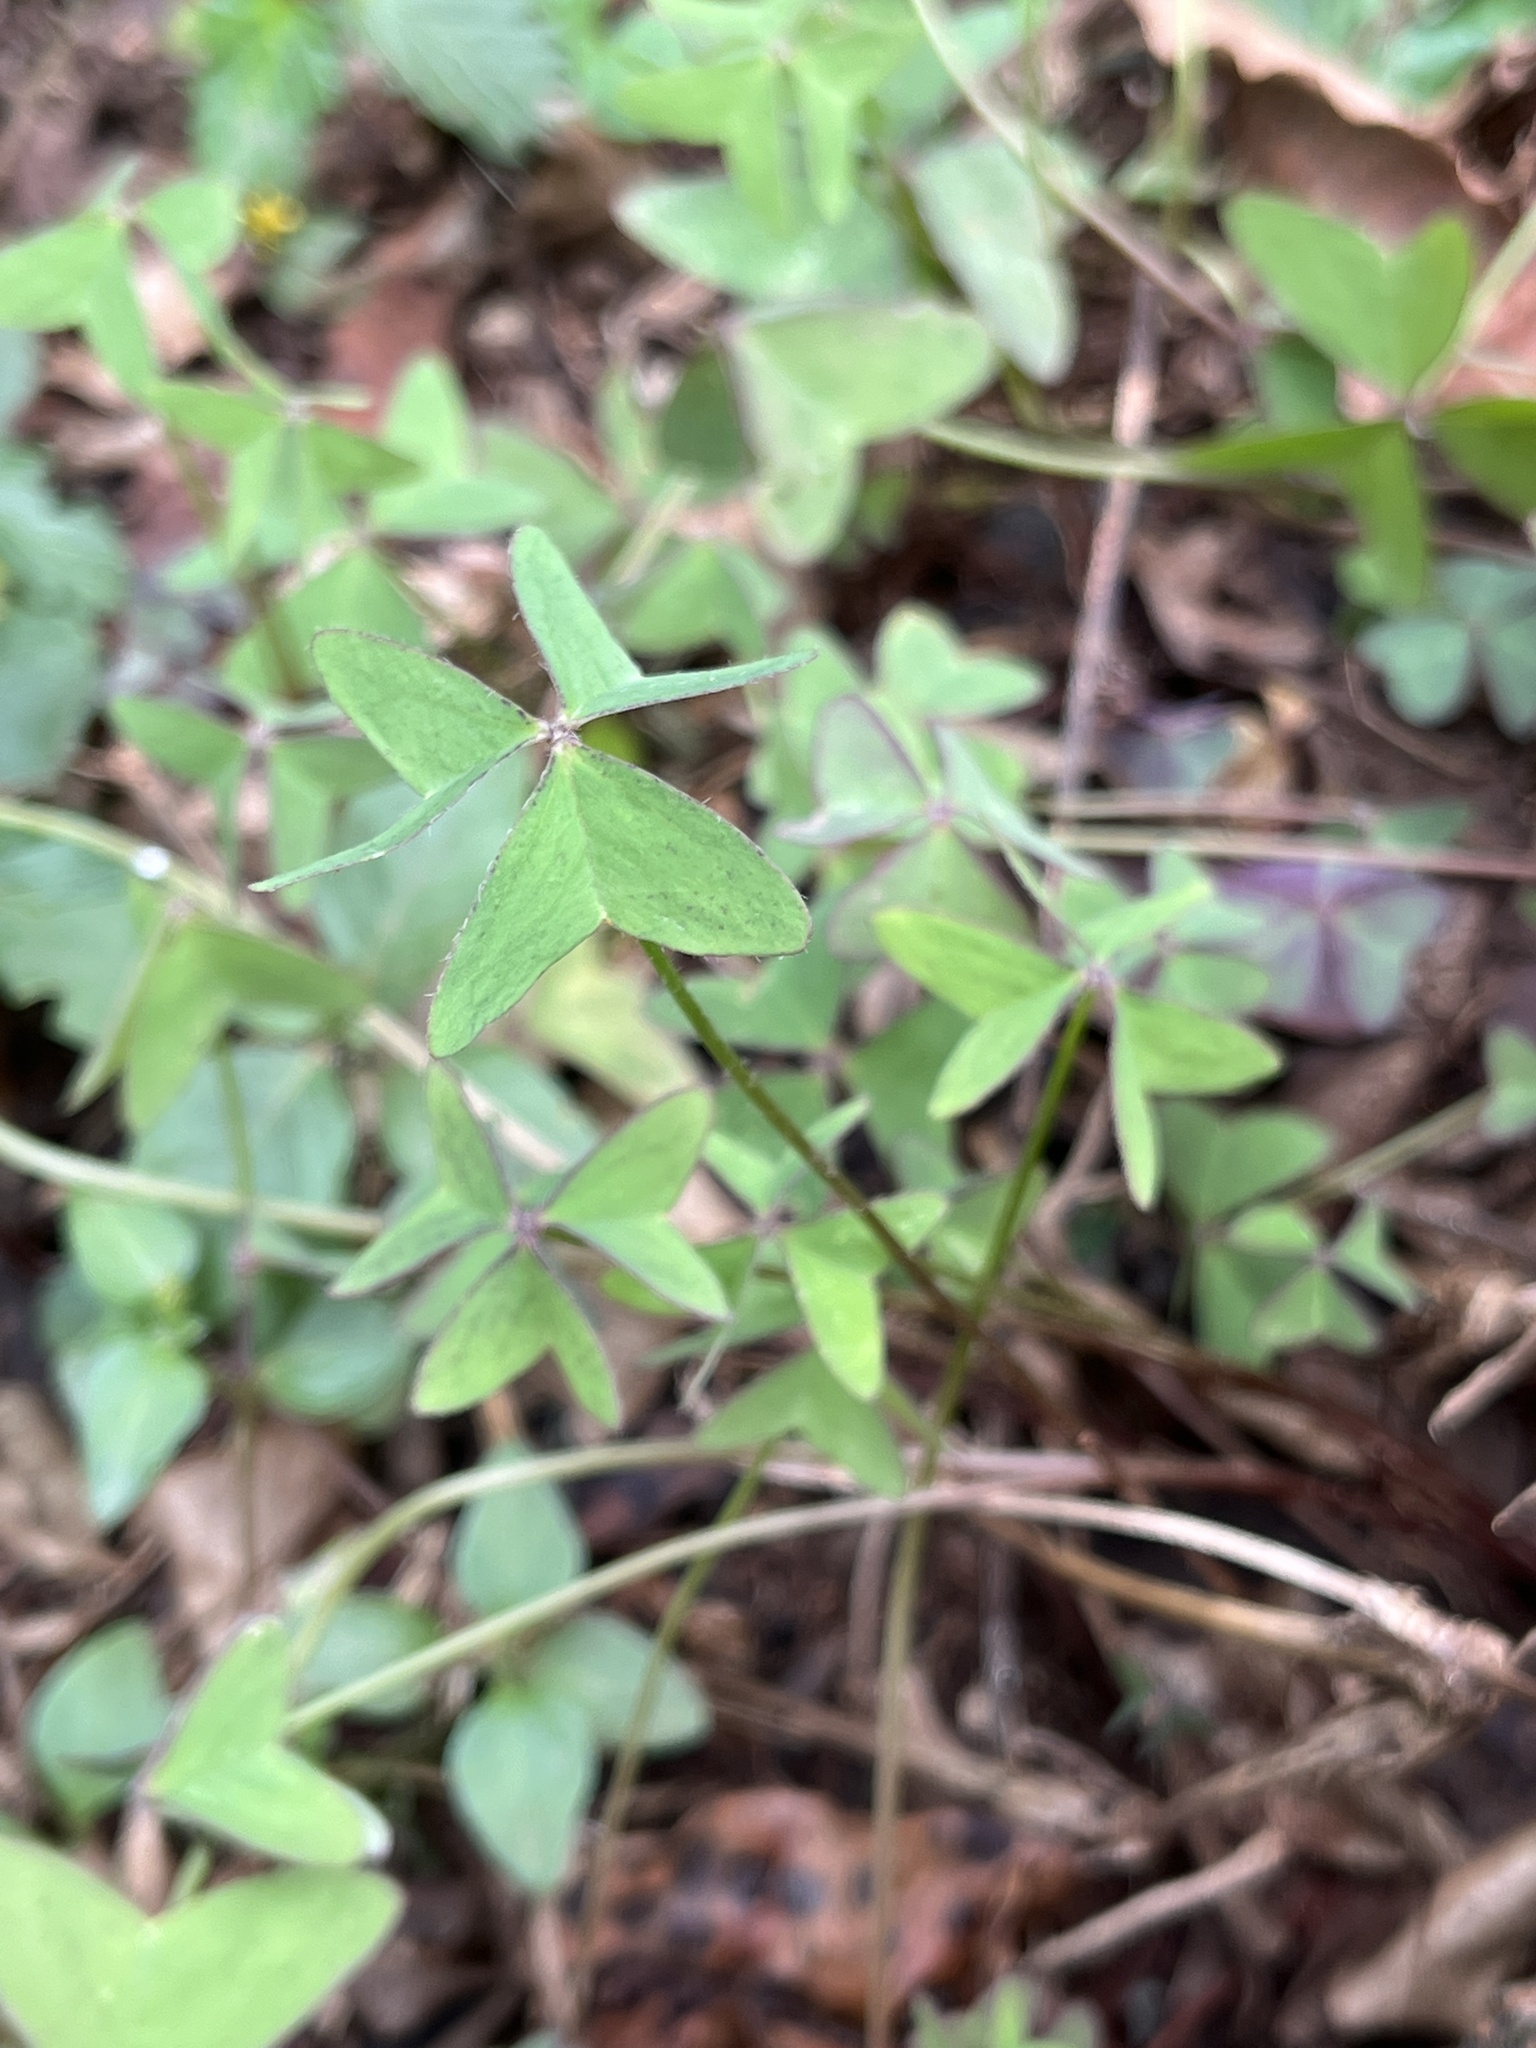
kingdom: Plantae
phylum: Tracheophyta
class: Magnoliopsida
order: Oxalidales
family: Oxalidaceae
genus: Oxalis
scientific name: Oxalis latifolia
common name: Garden pink-sorrel
